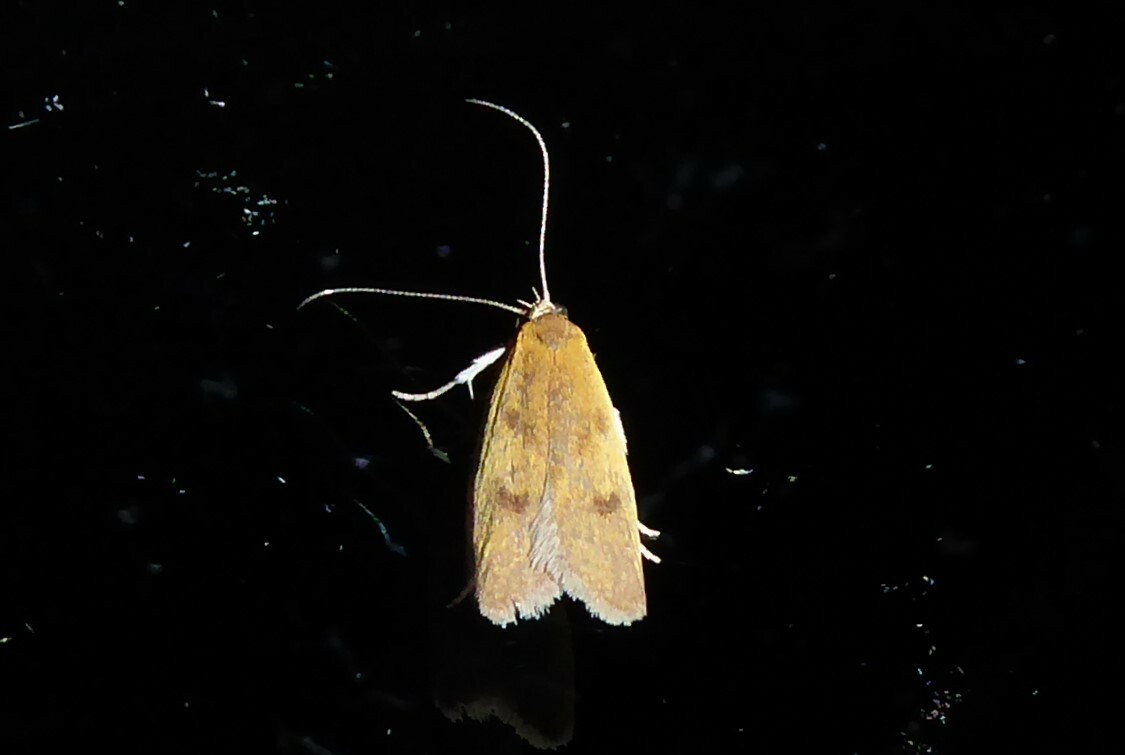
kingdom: Animalia
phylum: Arthropoda
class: Insecta
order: Lepidoptera
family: Oecophoridae
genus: Gymnobathra
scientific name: Gymnobathra sarcoxantha
